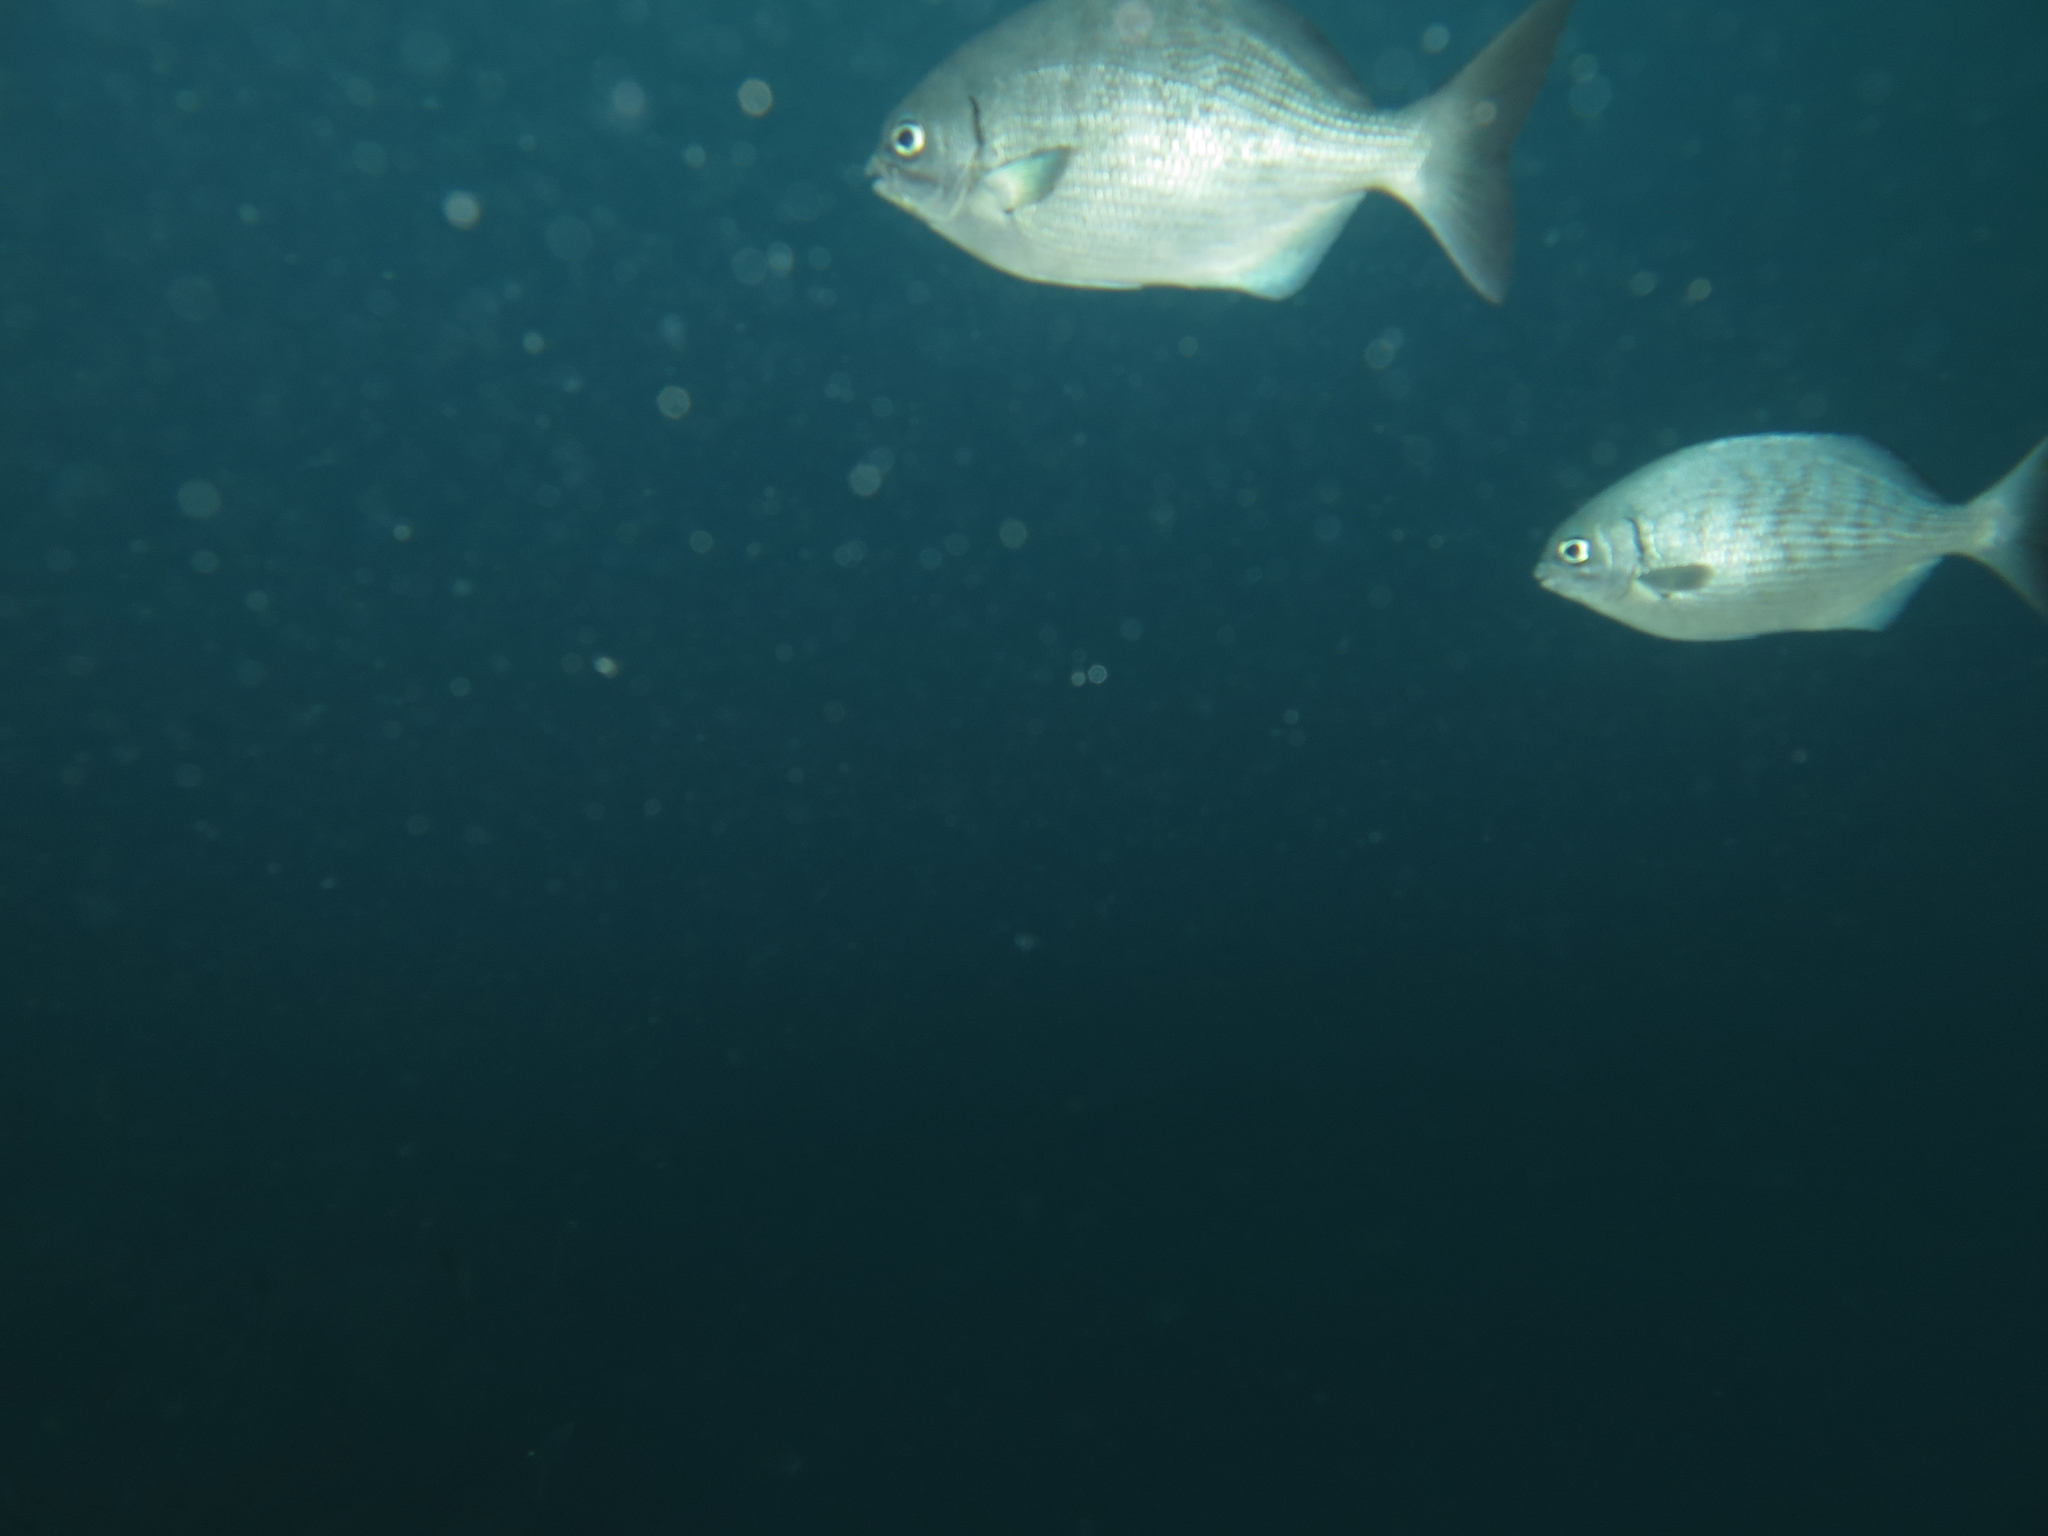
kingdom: Animalia
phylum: Chordata
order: Perciformes
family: Kyphosidae
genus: Kyphosus
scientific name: Kyphosus elegans
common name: Cortez chub
